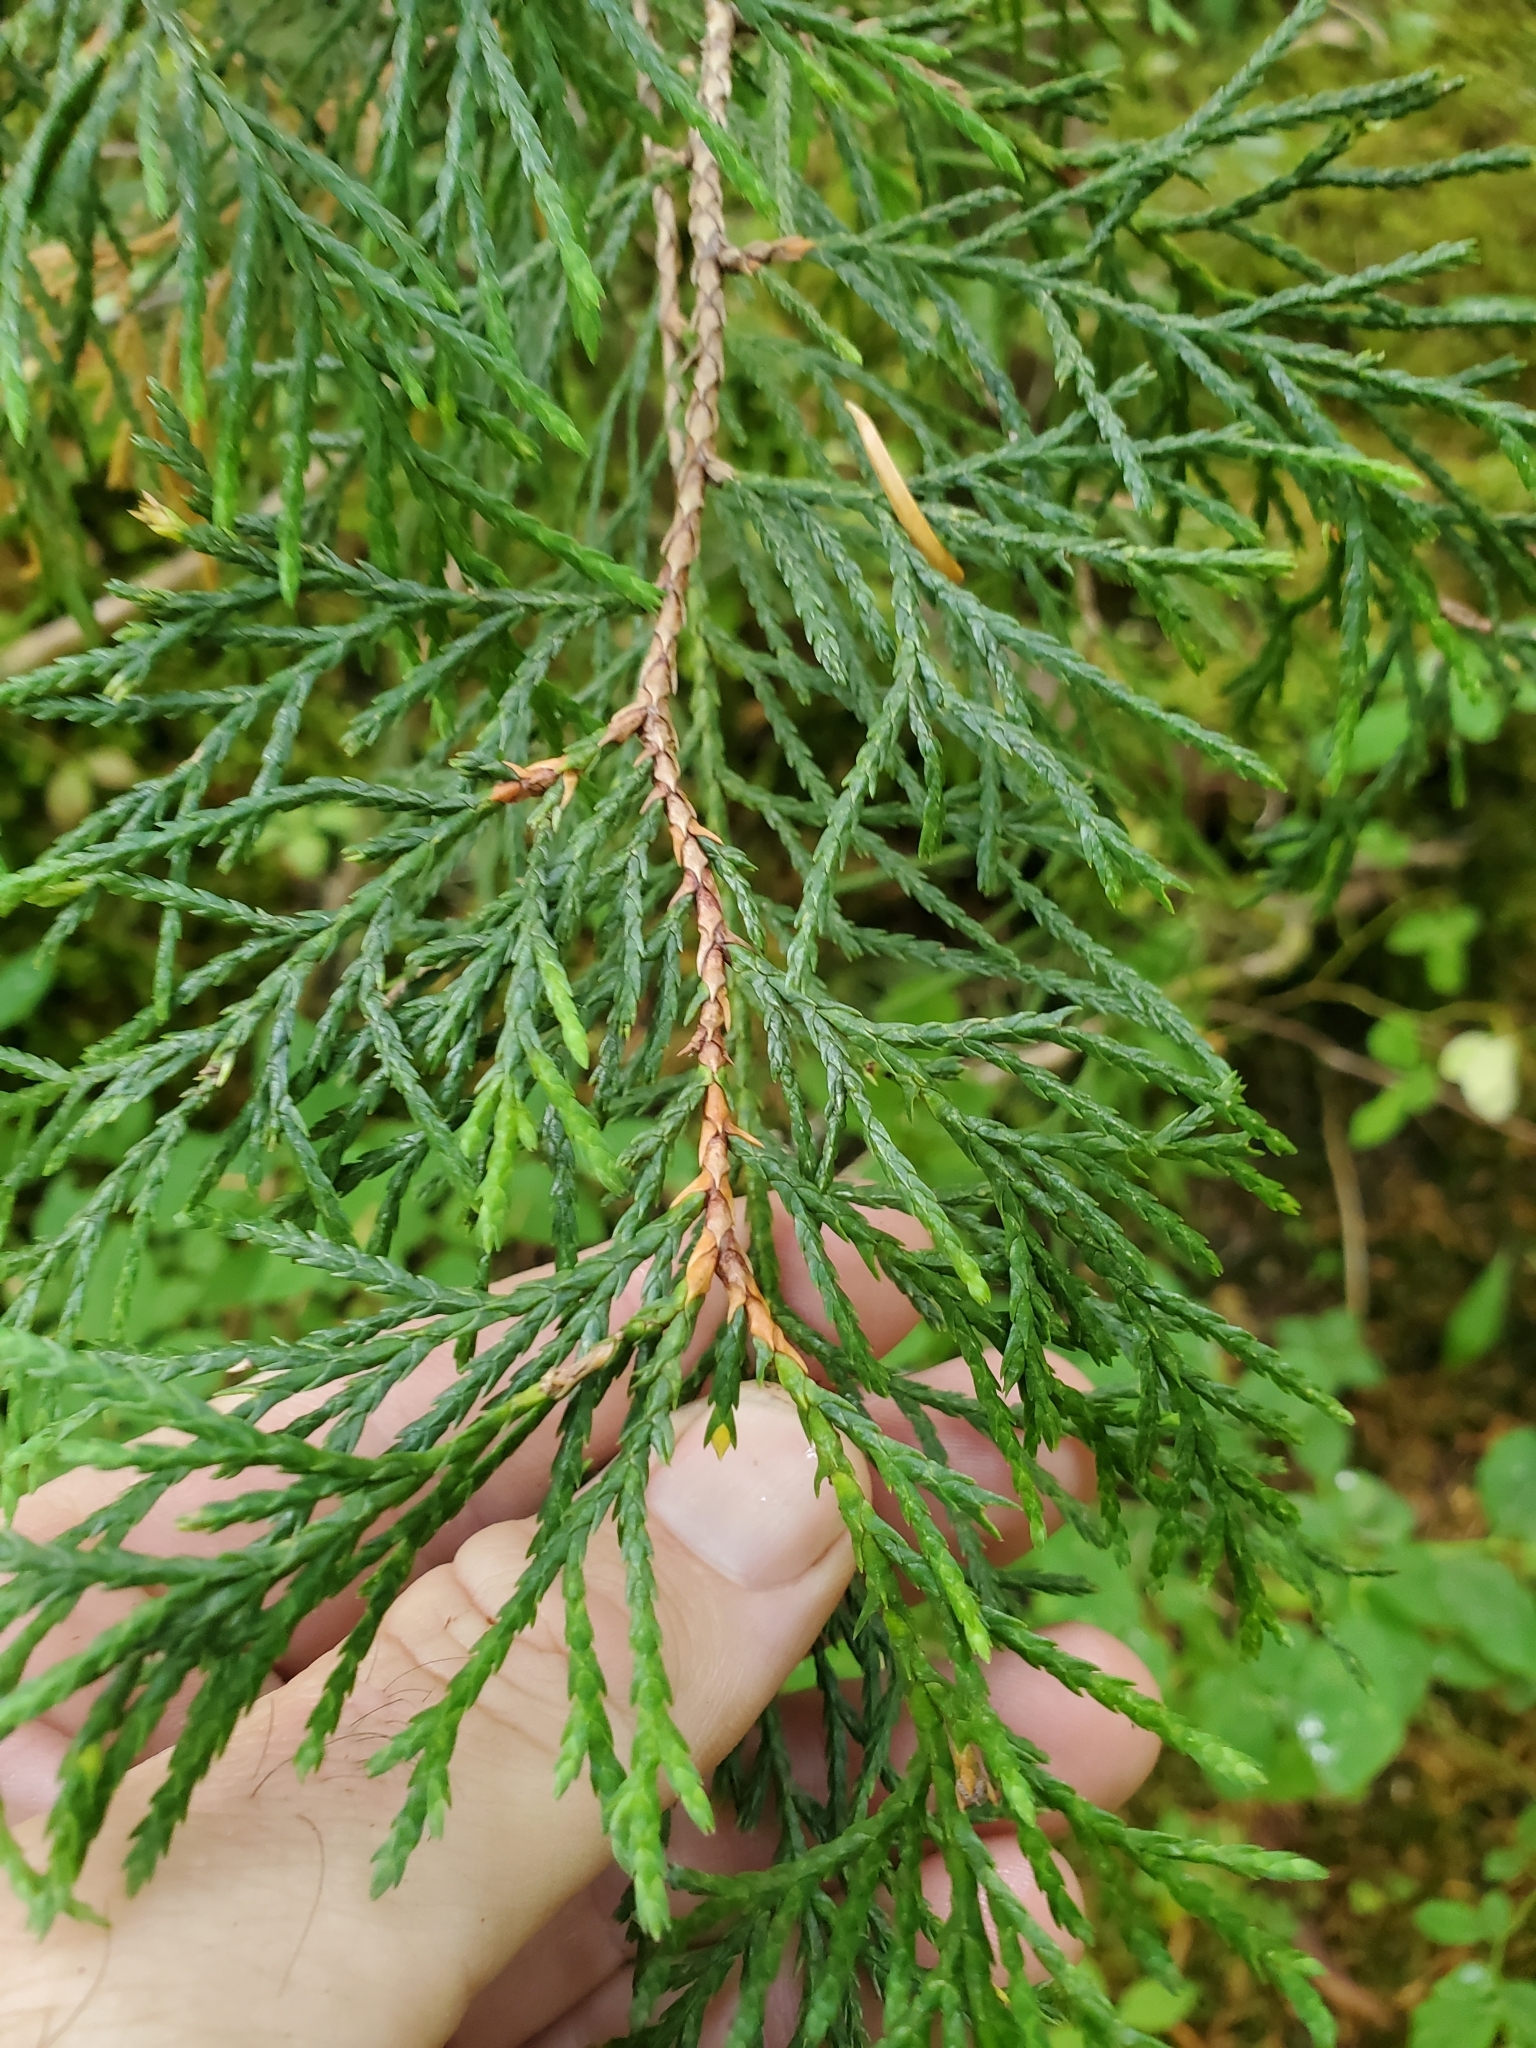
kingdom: Plantae
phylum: Tracheophyta
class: Pinopsida
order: Pinales
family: Cupressaceae
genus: Xanthocyparis
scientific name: Xanthocyparis nootkatensis
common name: Nootka cypress
